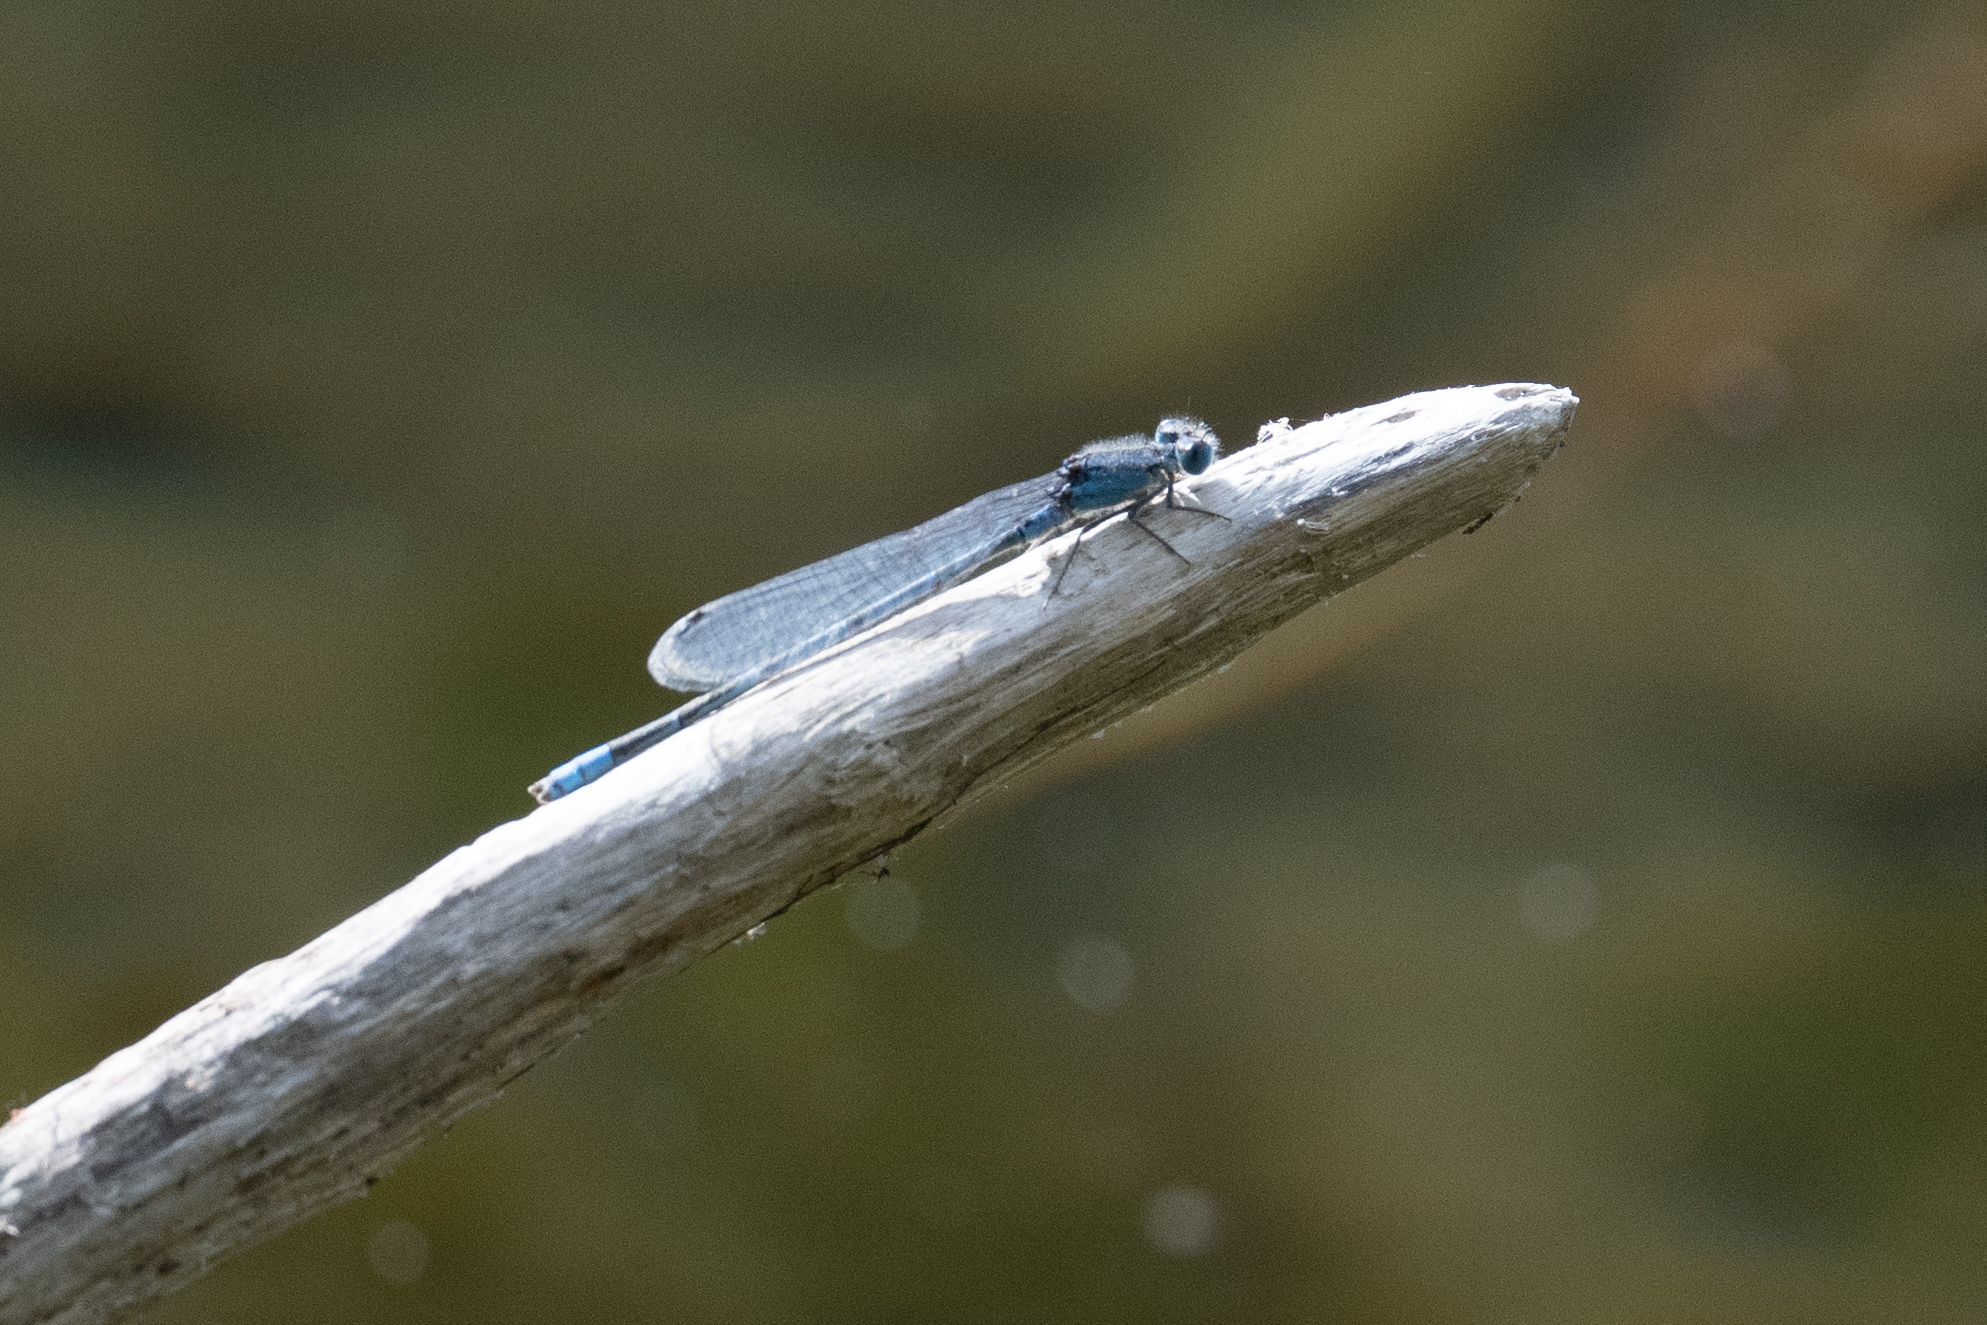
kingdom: Animalia
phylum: Arthropoda
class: Insecta
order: Odonata
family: Coenagrionidae
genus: Enallagma
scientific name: Enallagma civile
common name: Damselfly
